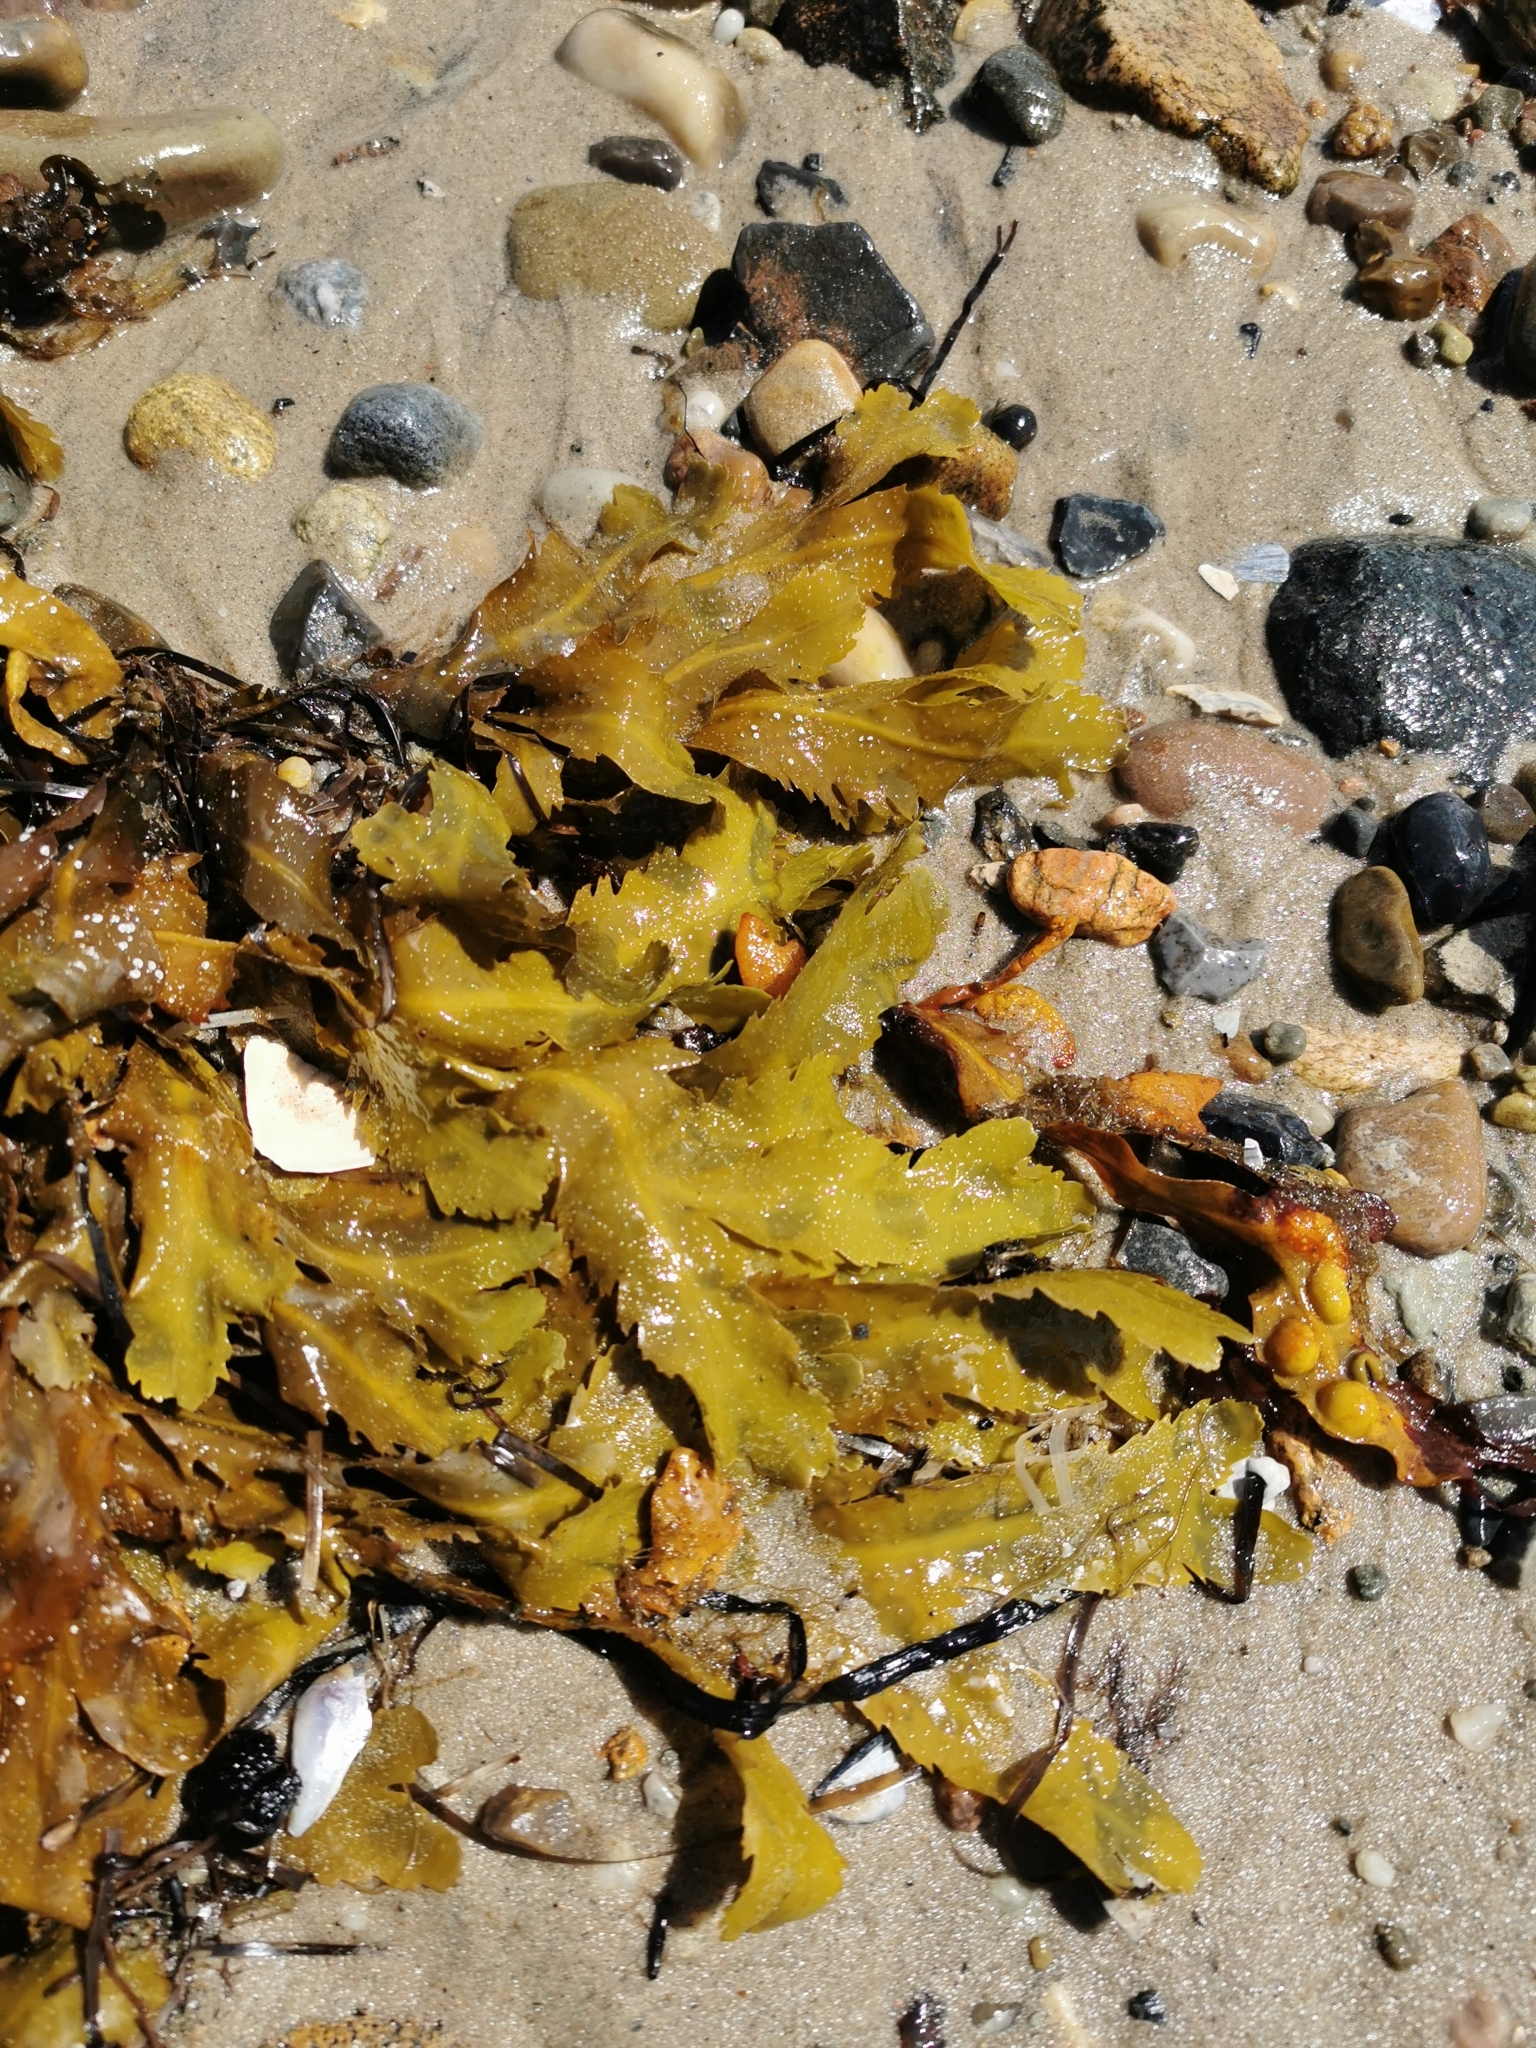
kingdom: Chromista
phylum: Ochrophyta
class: Phaeophyceae
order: Fucales
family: Fucaceae
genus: Fucus
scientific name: Fucus serratus
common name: Toothed wrack
